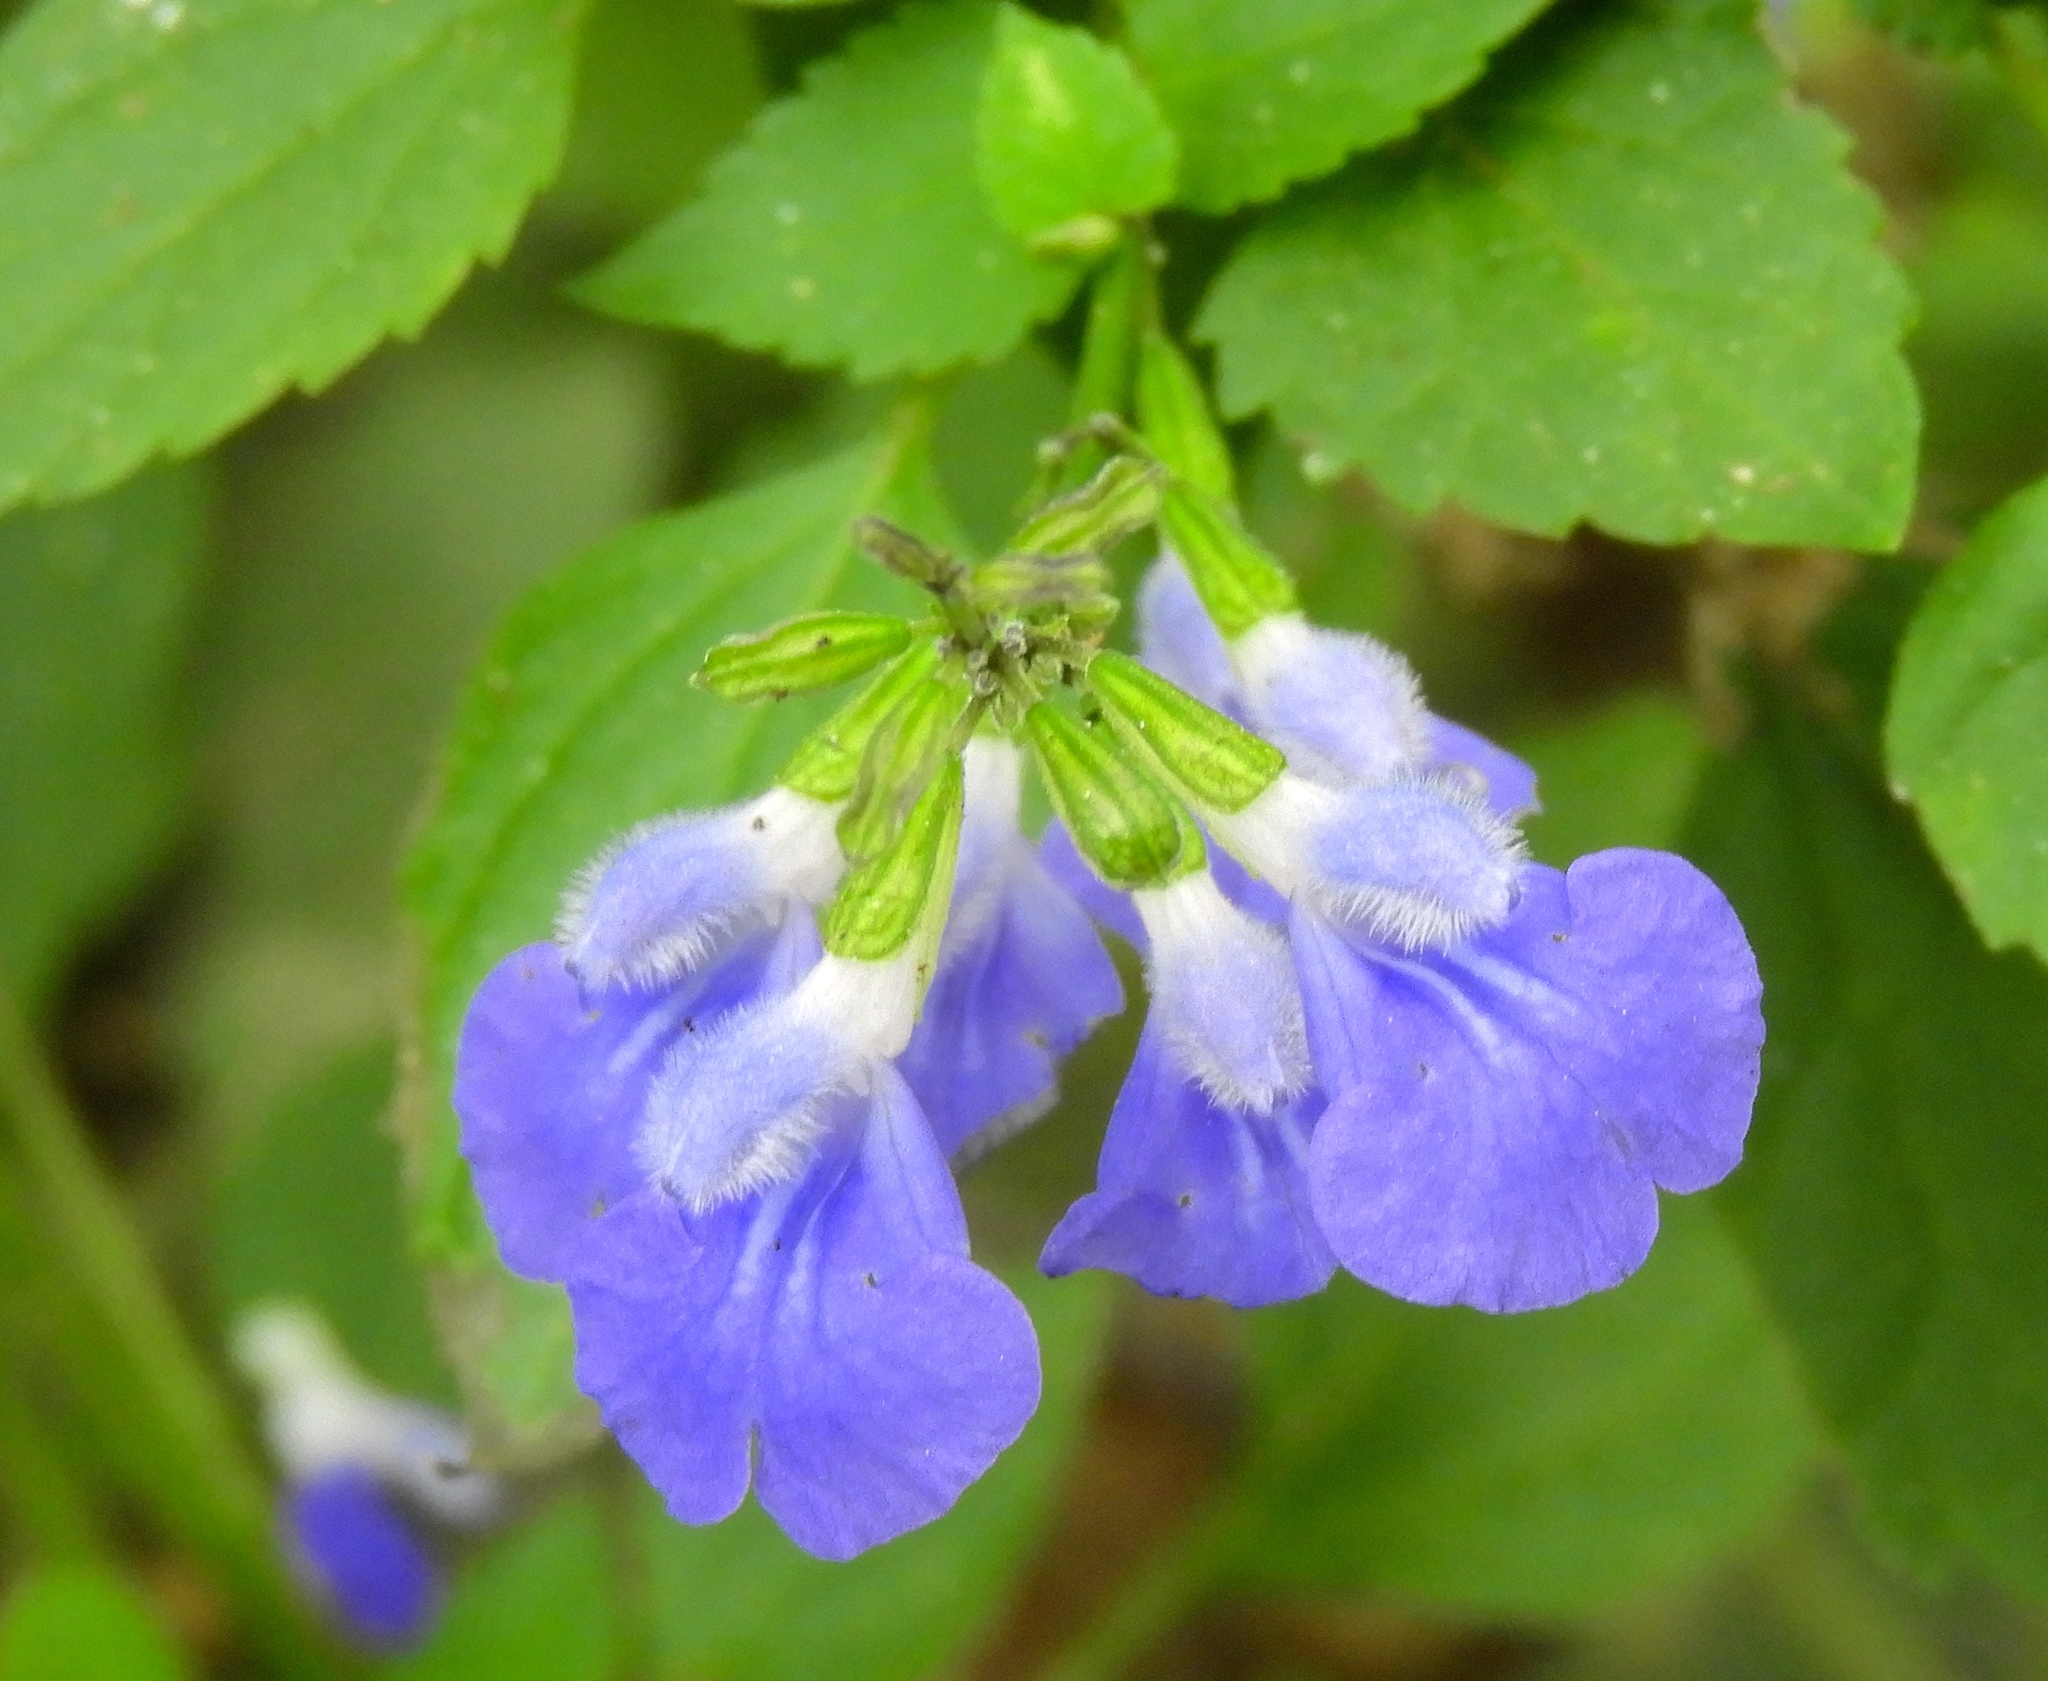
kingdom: Plantae
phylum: Tracheophyta
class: Magnoliopsida
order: Lamiales
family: Lamiaceae
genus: Salvia
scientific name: Salvia languidula
